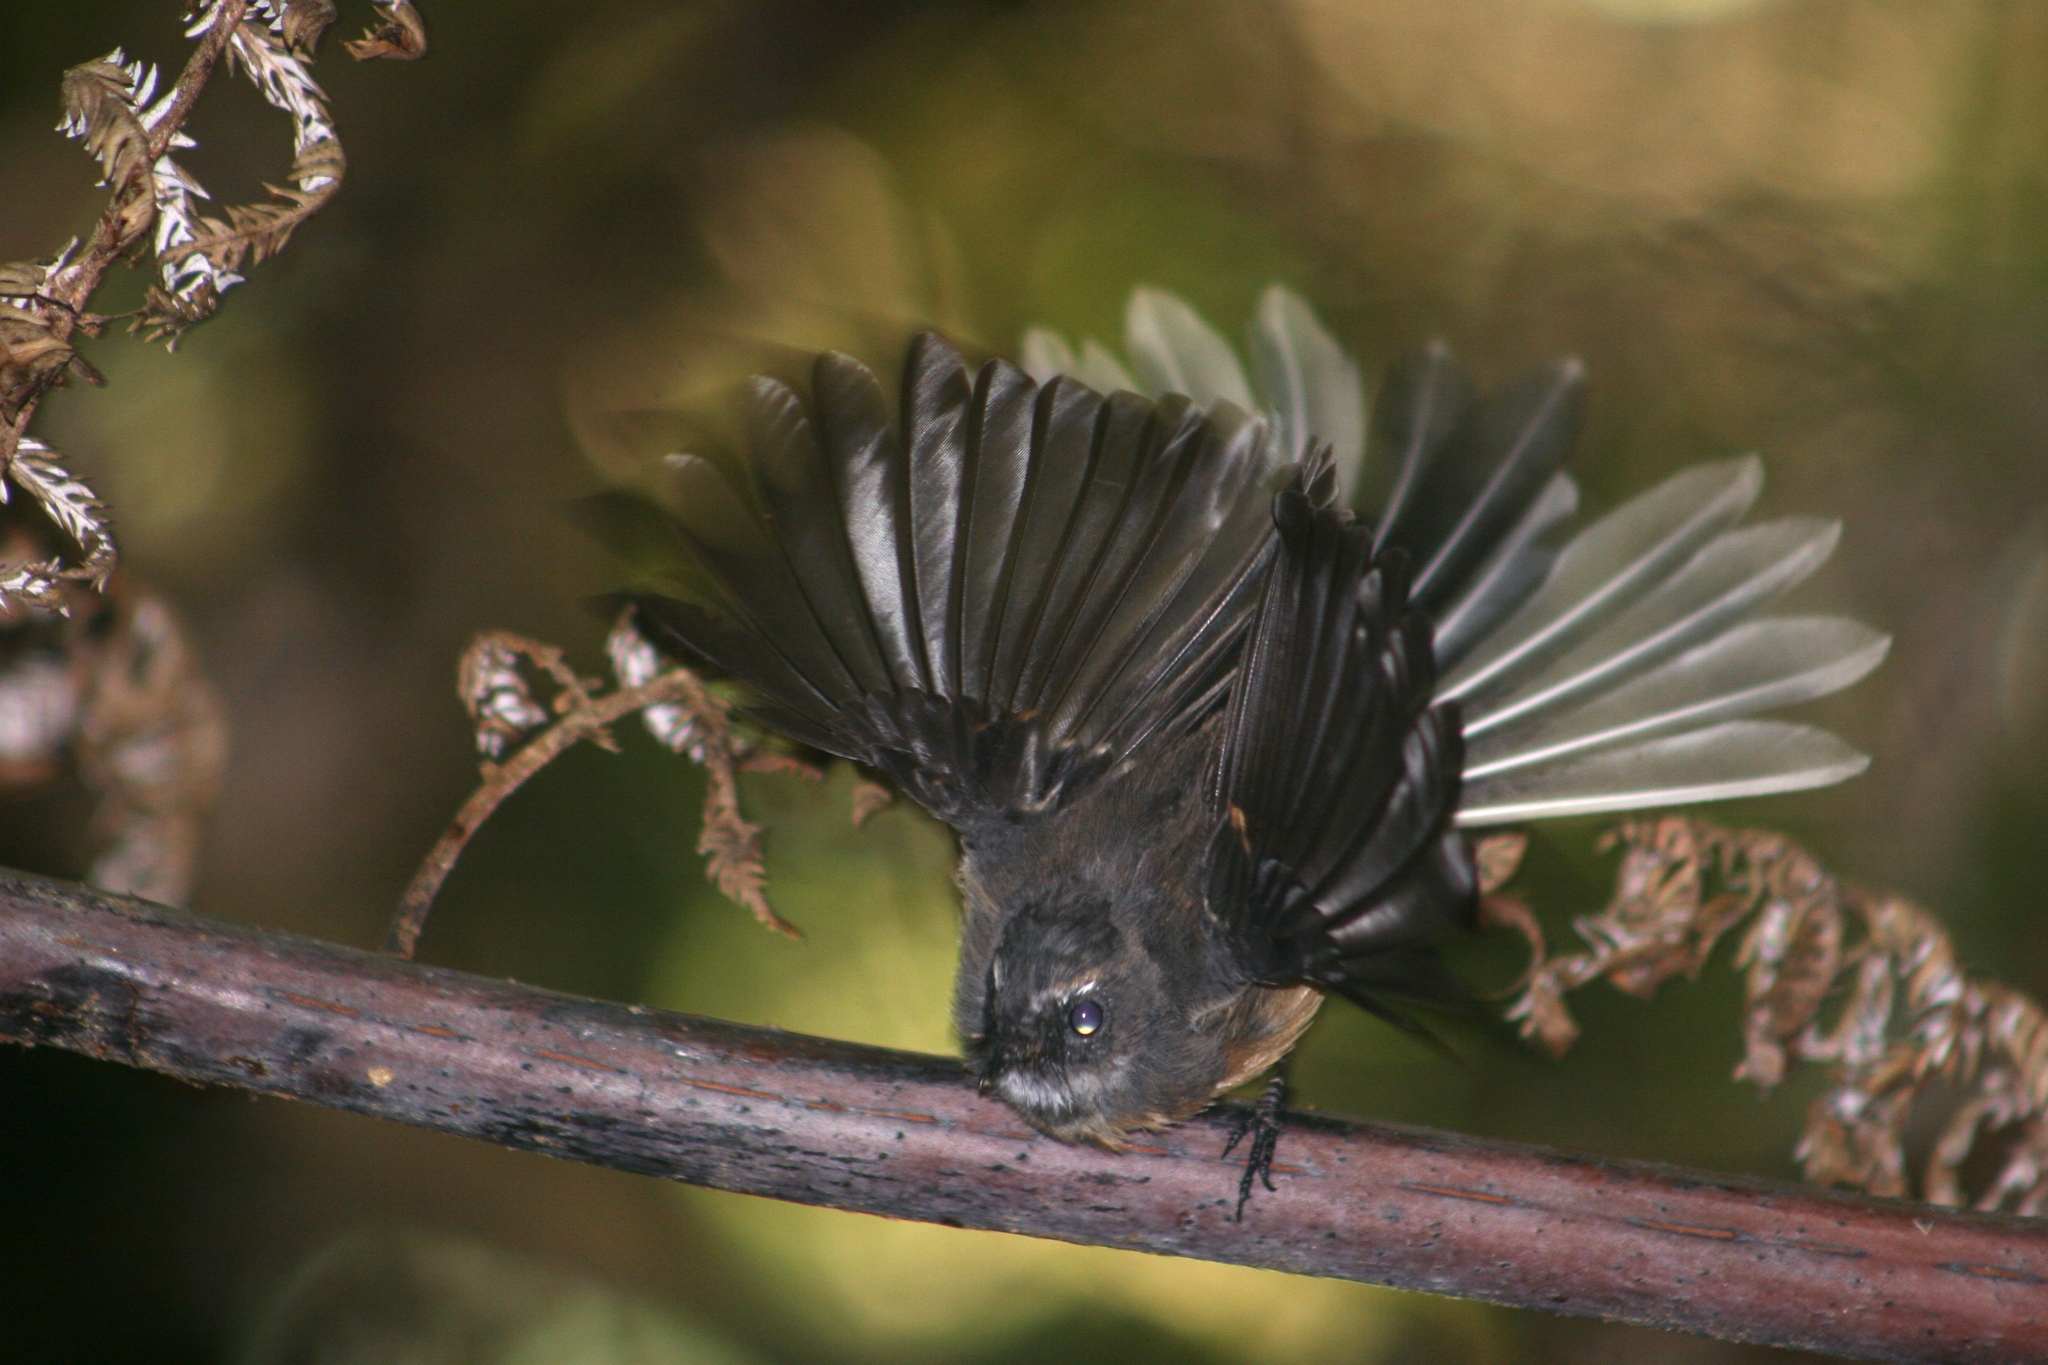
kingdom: Animalia
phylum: Chordata
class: Aves
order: Passeriformes
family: Rhipiduridae
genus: Rhipidura
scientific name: Rhipidura fuliginosa
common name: New zealand fantail
